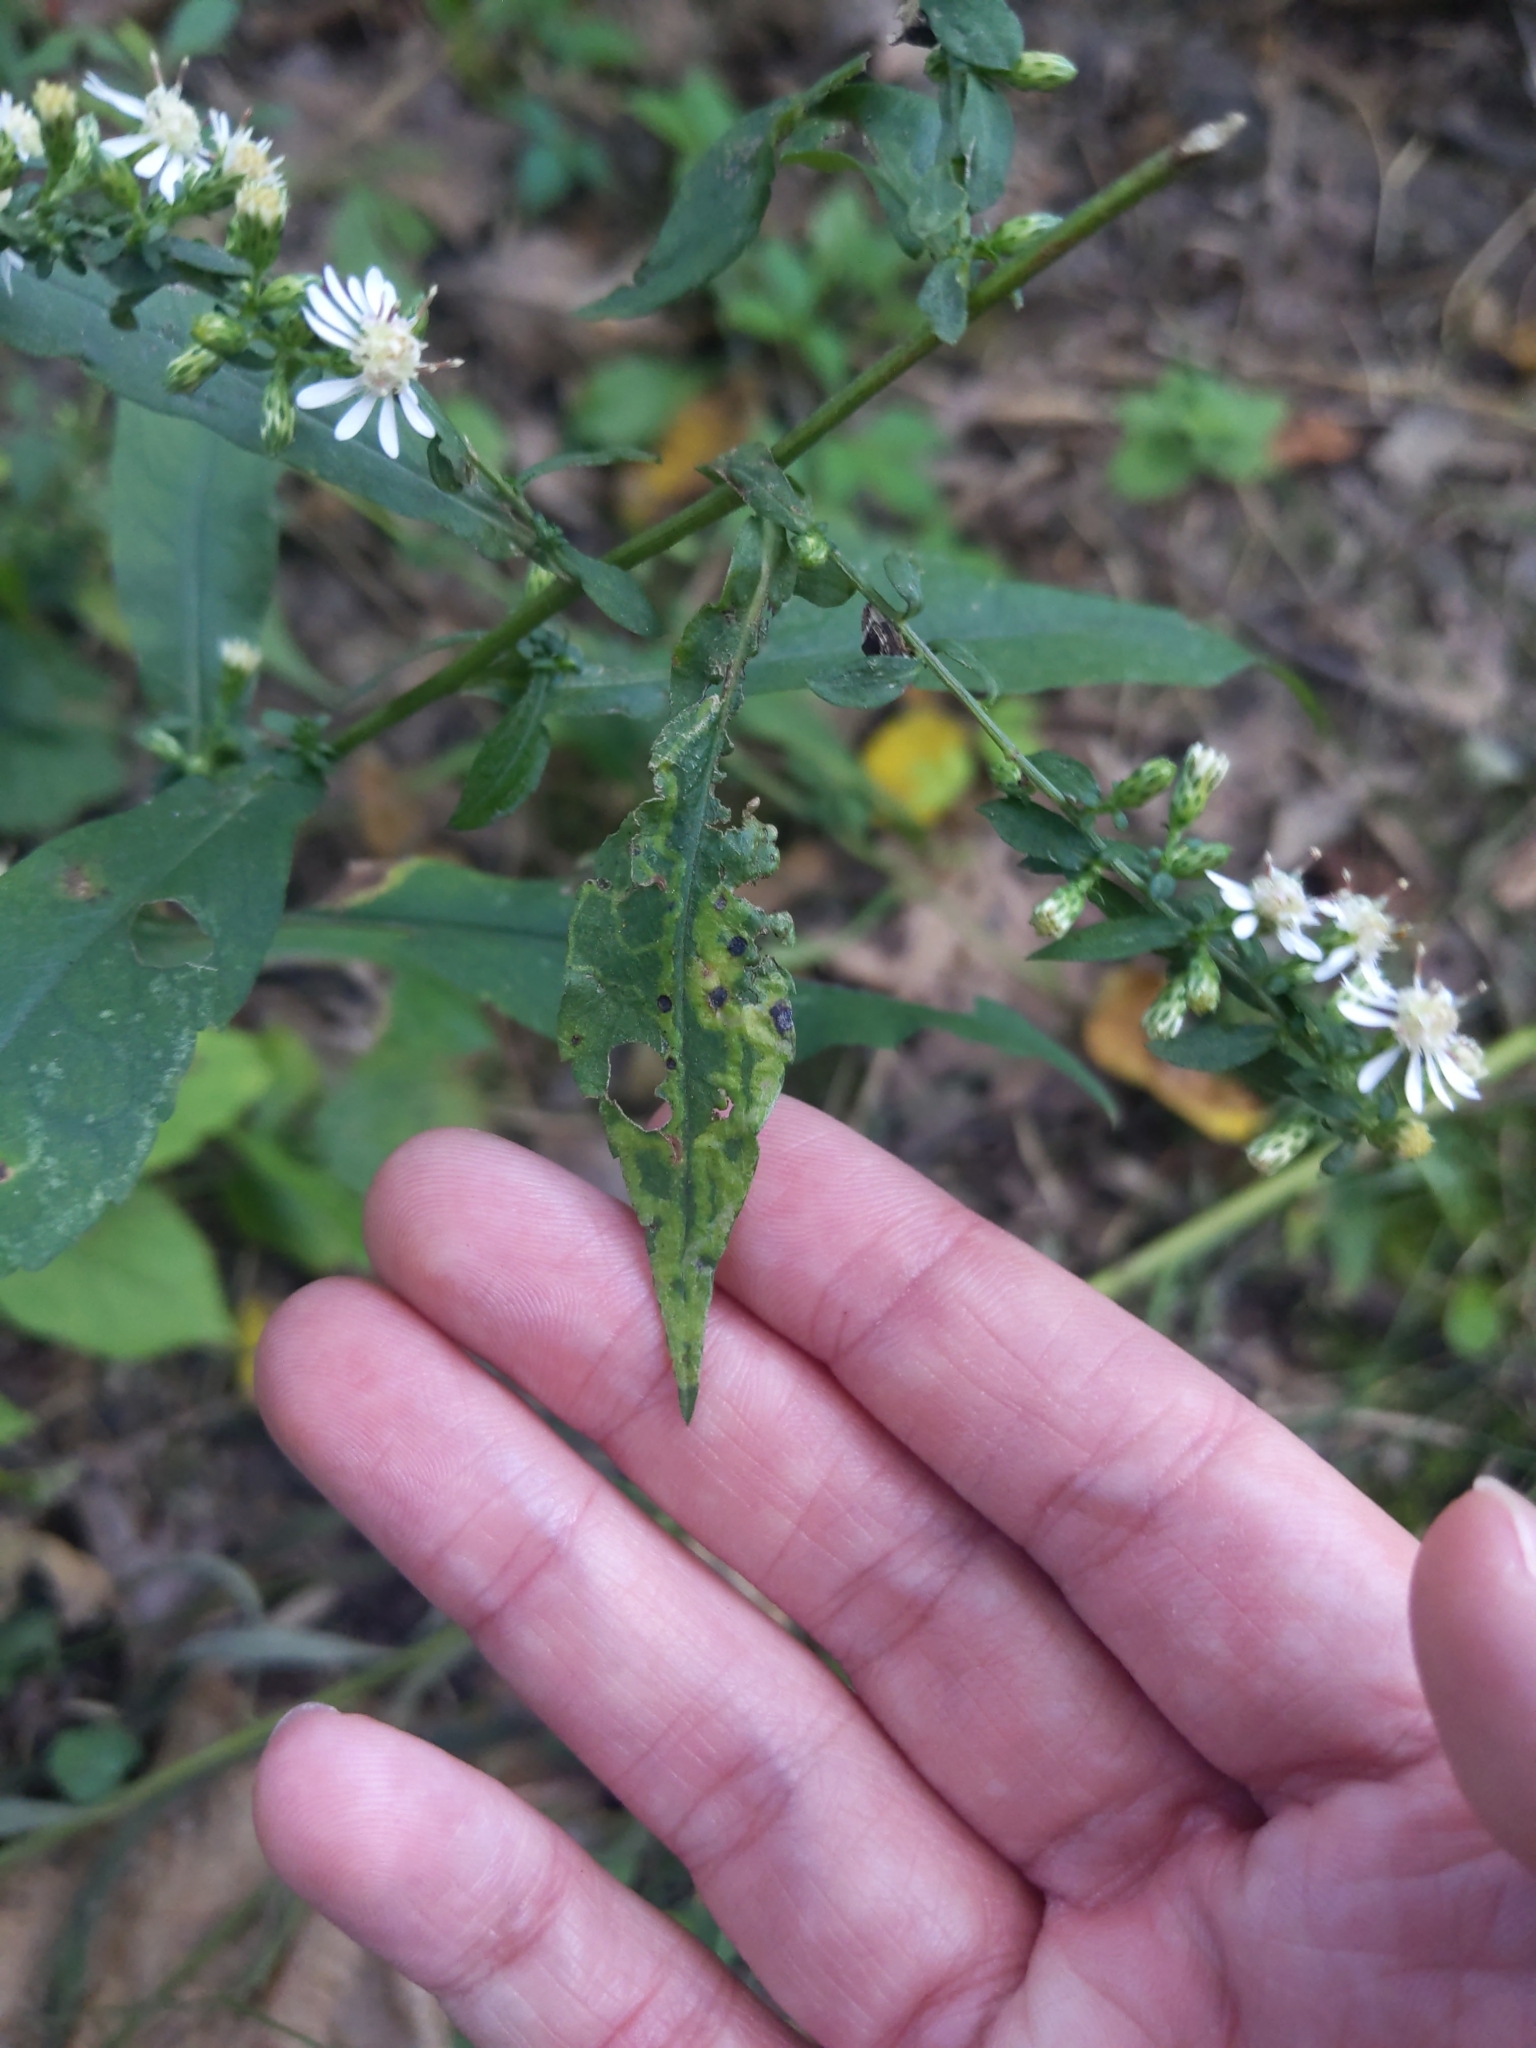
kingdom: Animalia
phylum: Arthropoda
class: Insecta
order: Diptera
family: Agromyzidae
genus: Ophiomyia
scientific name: Ophiomyia parda
